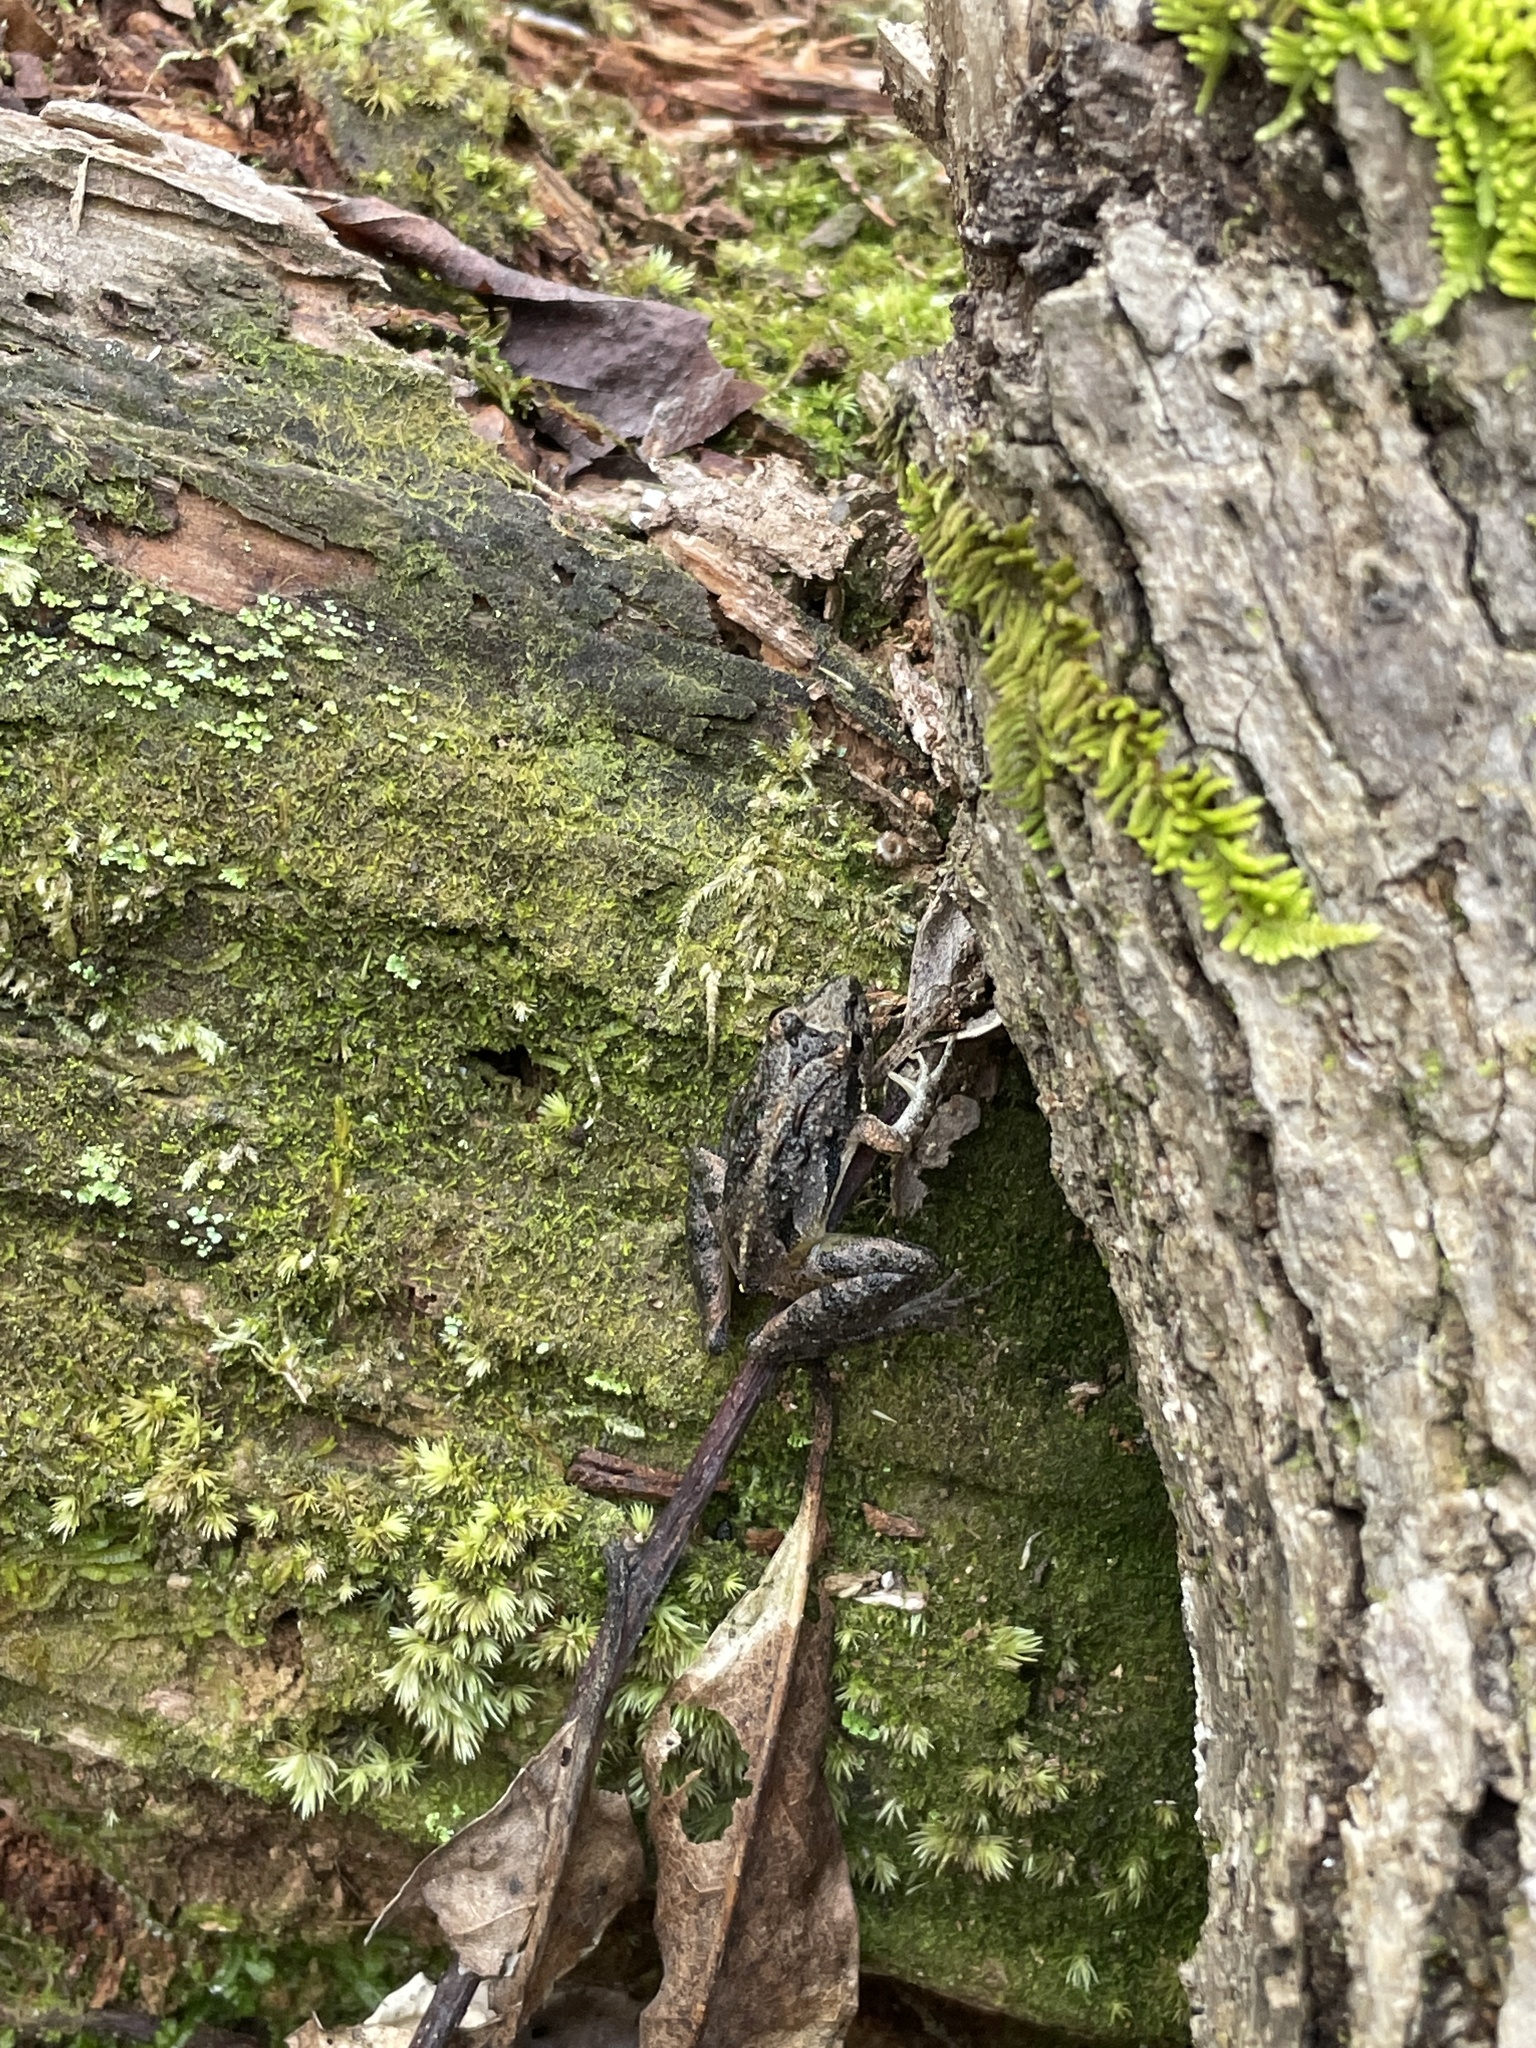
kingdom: Animalia
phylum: Chordata
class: Amphibia
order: Anura
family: Hylidae
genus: Acris
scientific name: Acris gryllus
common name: Southern cricket frog
